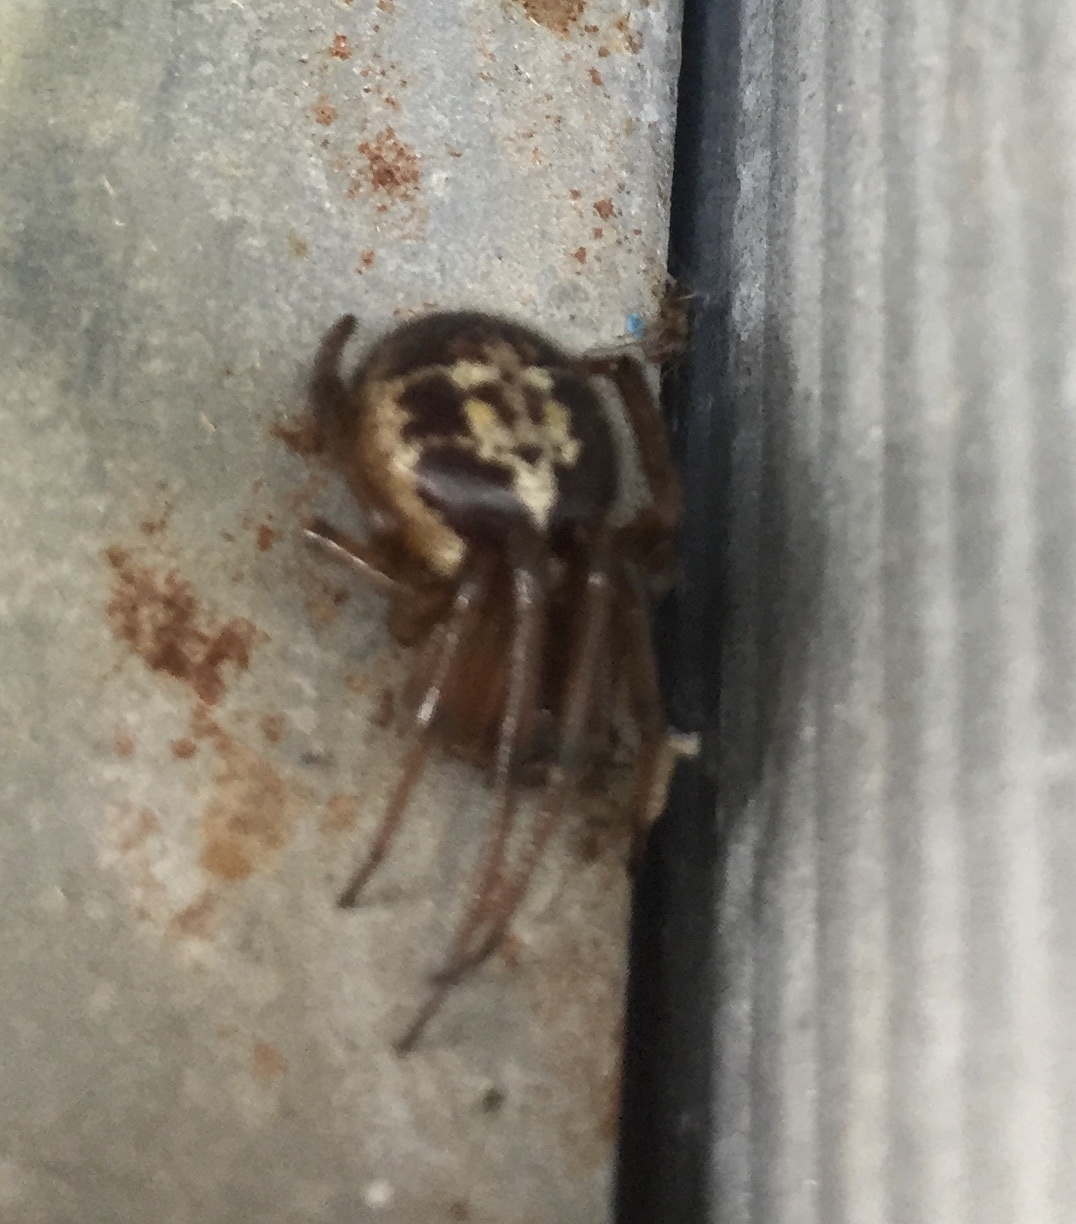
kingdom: Animalia
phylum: Arthropoda
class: Arachnida
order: Araneae
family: Theridiidae
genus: Steatoda
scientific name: Steatoda nobilis
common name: Cobweb weaver
